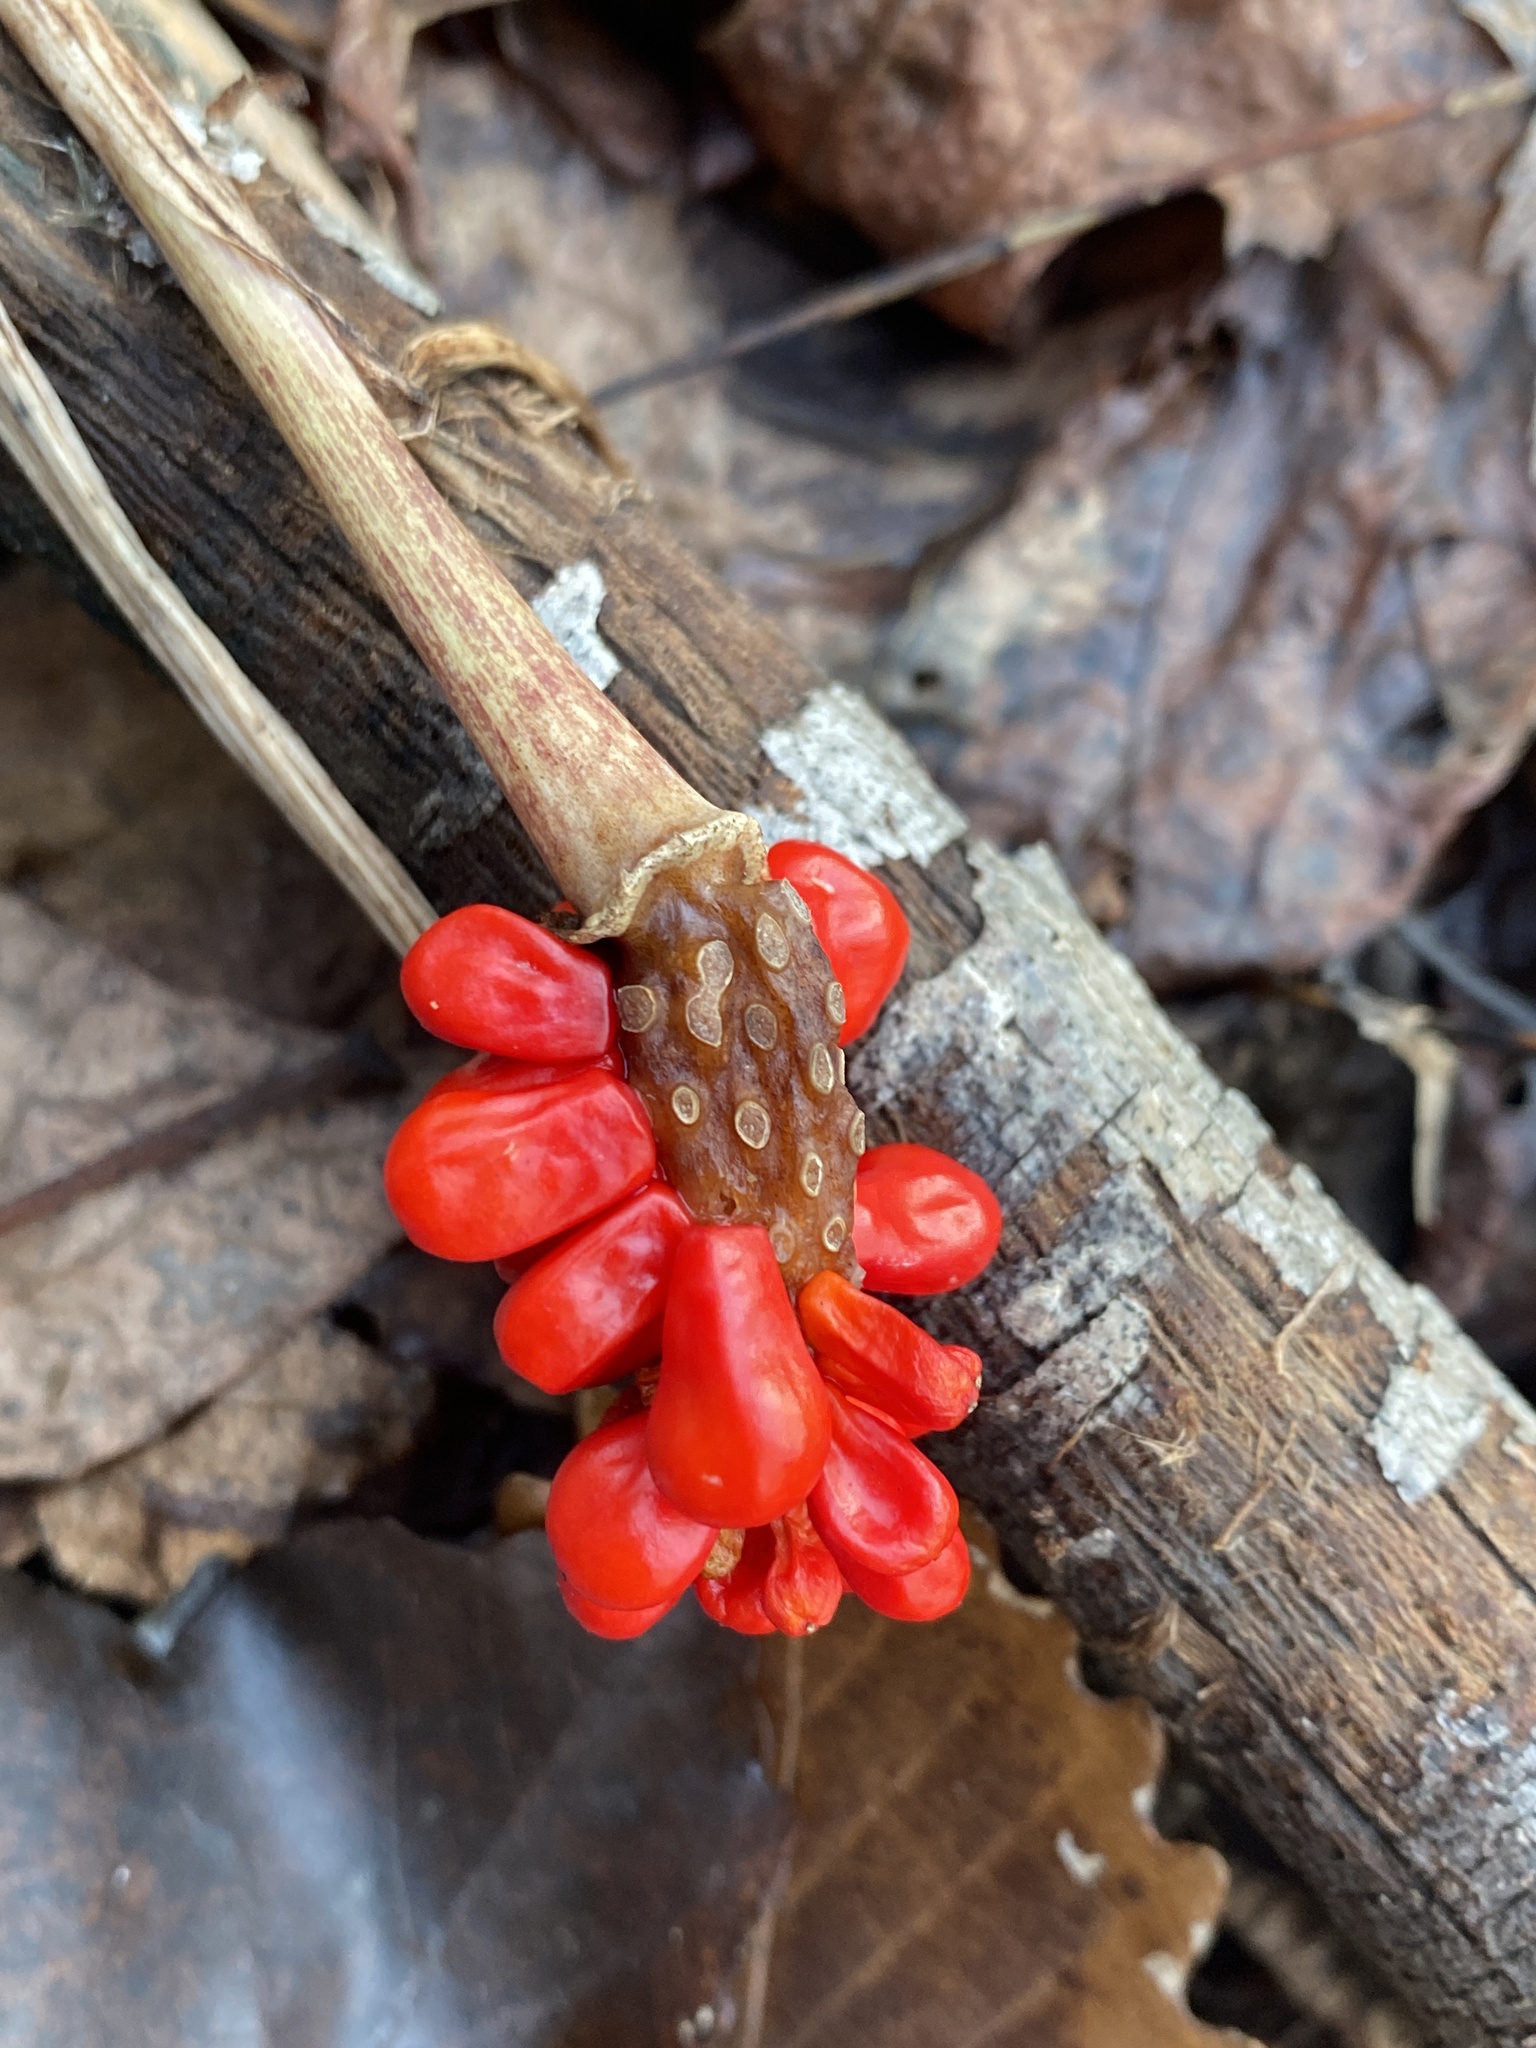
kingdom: Plantae
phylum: Tracheophyta
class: Liliopsida
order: Alismatales
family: Araceae
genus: Arisaema
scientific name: Arisaema triphyllum
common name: Jack-in-the-pulpit
